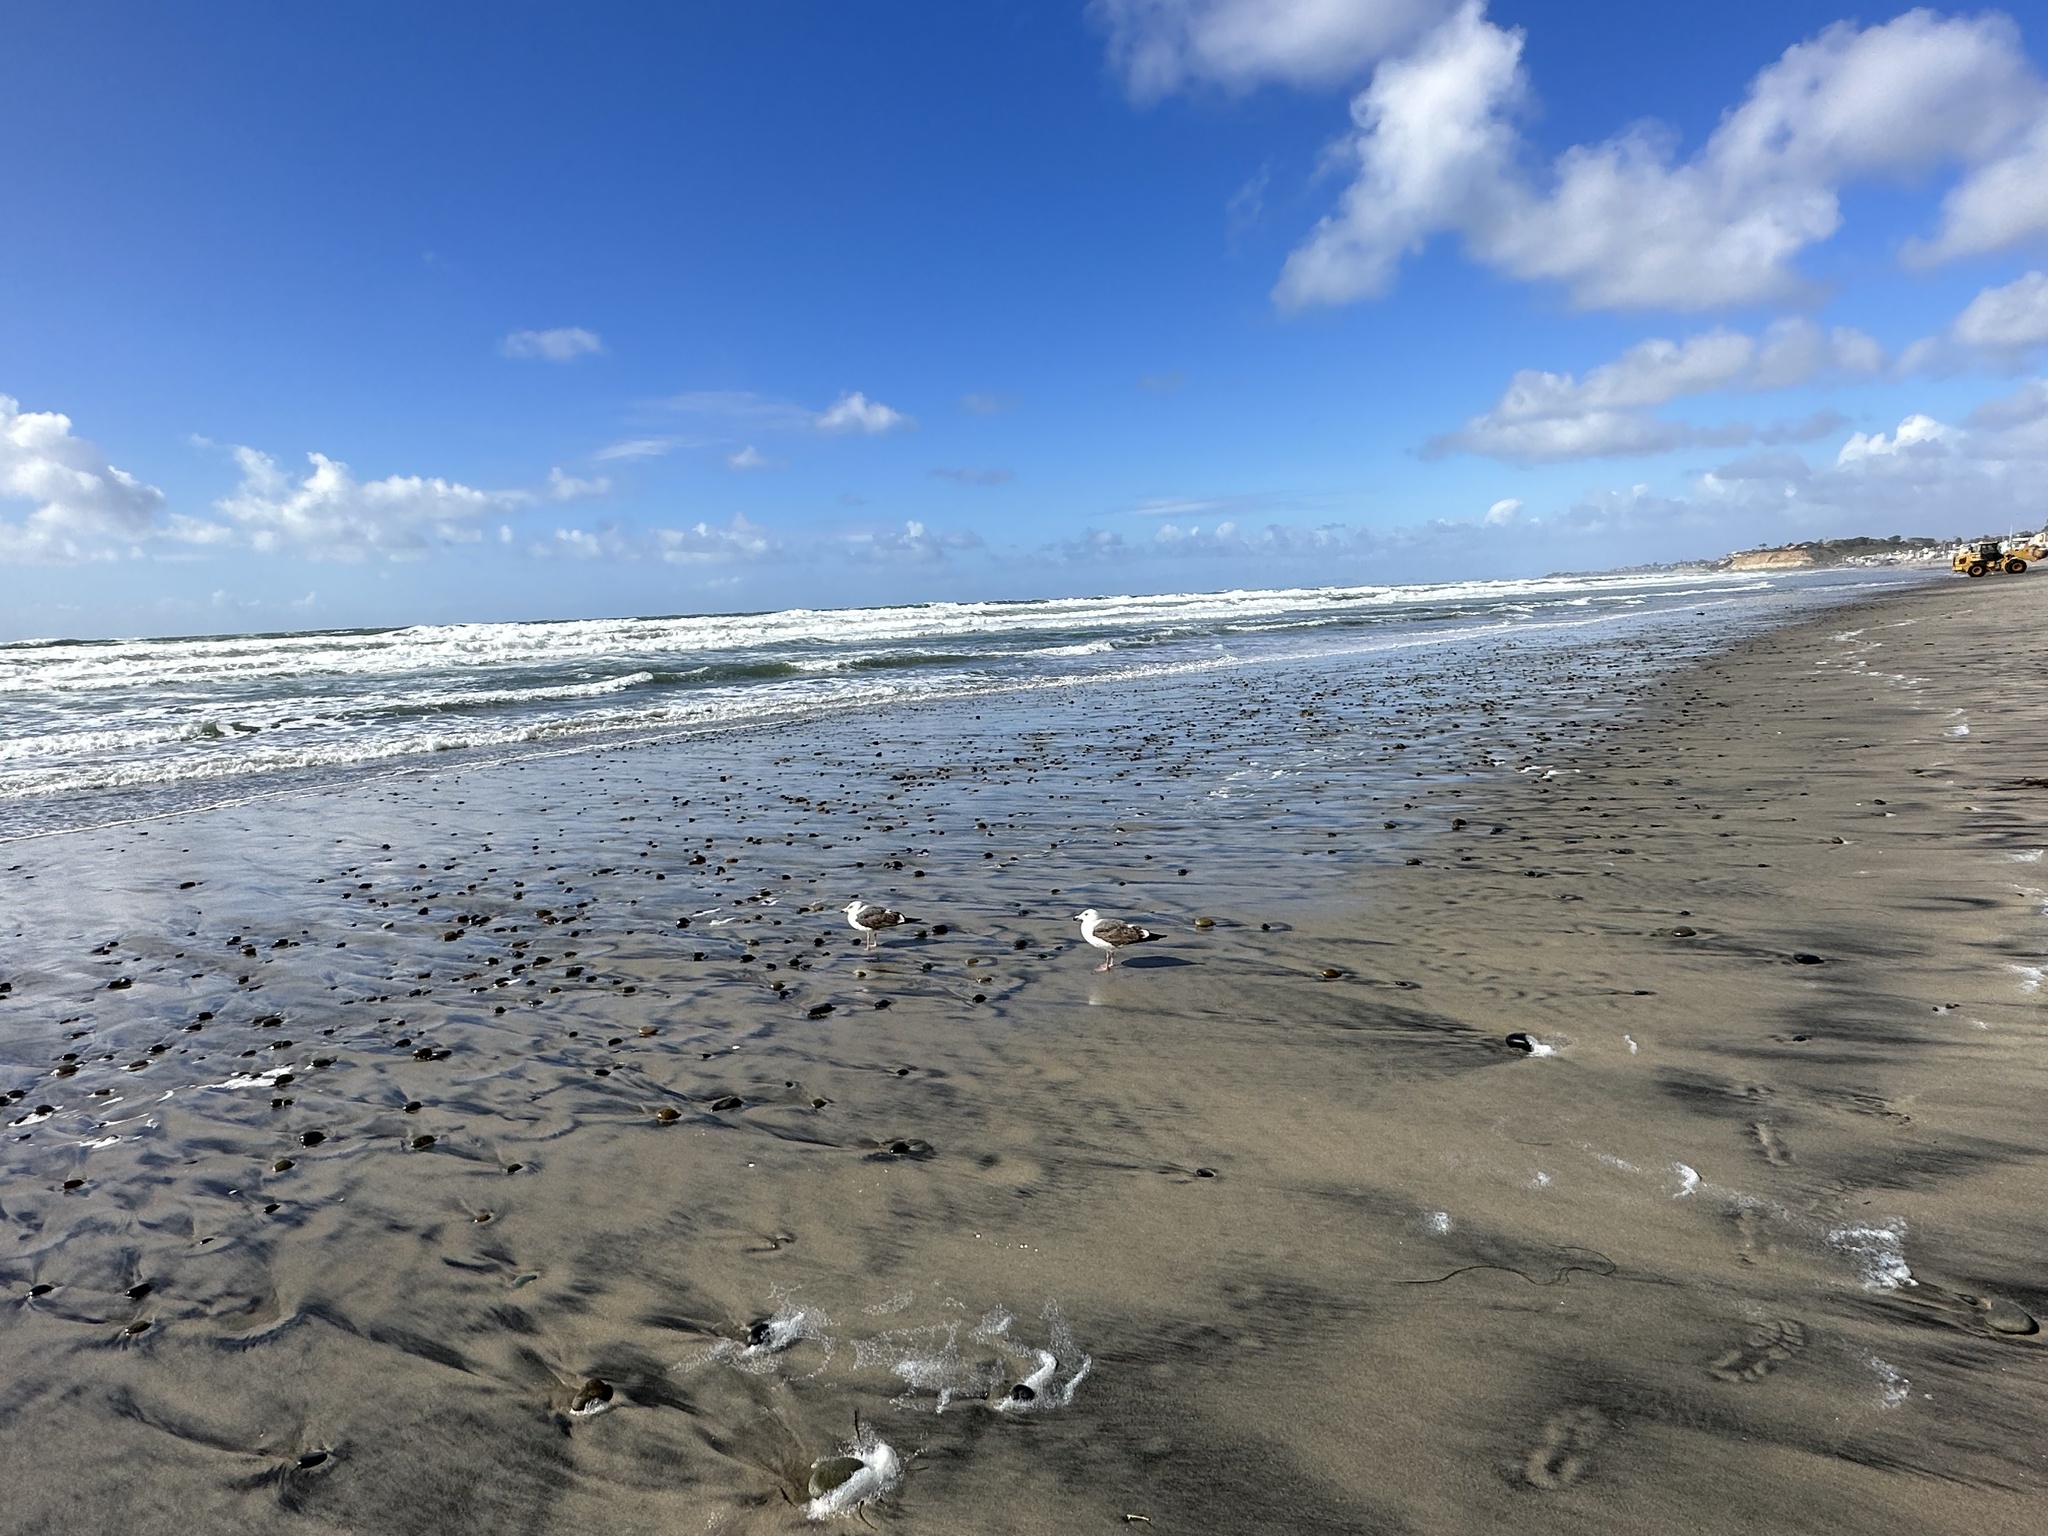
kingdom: Animalia
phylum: Chordata
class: Aves
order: Charadriiformes
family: Laridae
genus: Larus
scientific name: Larus occidentalis
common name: Western gull
